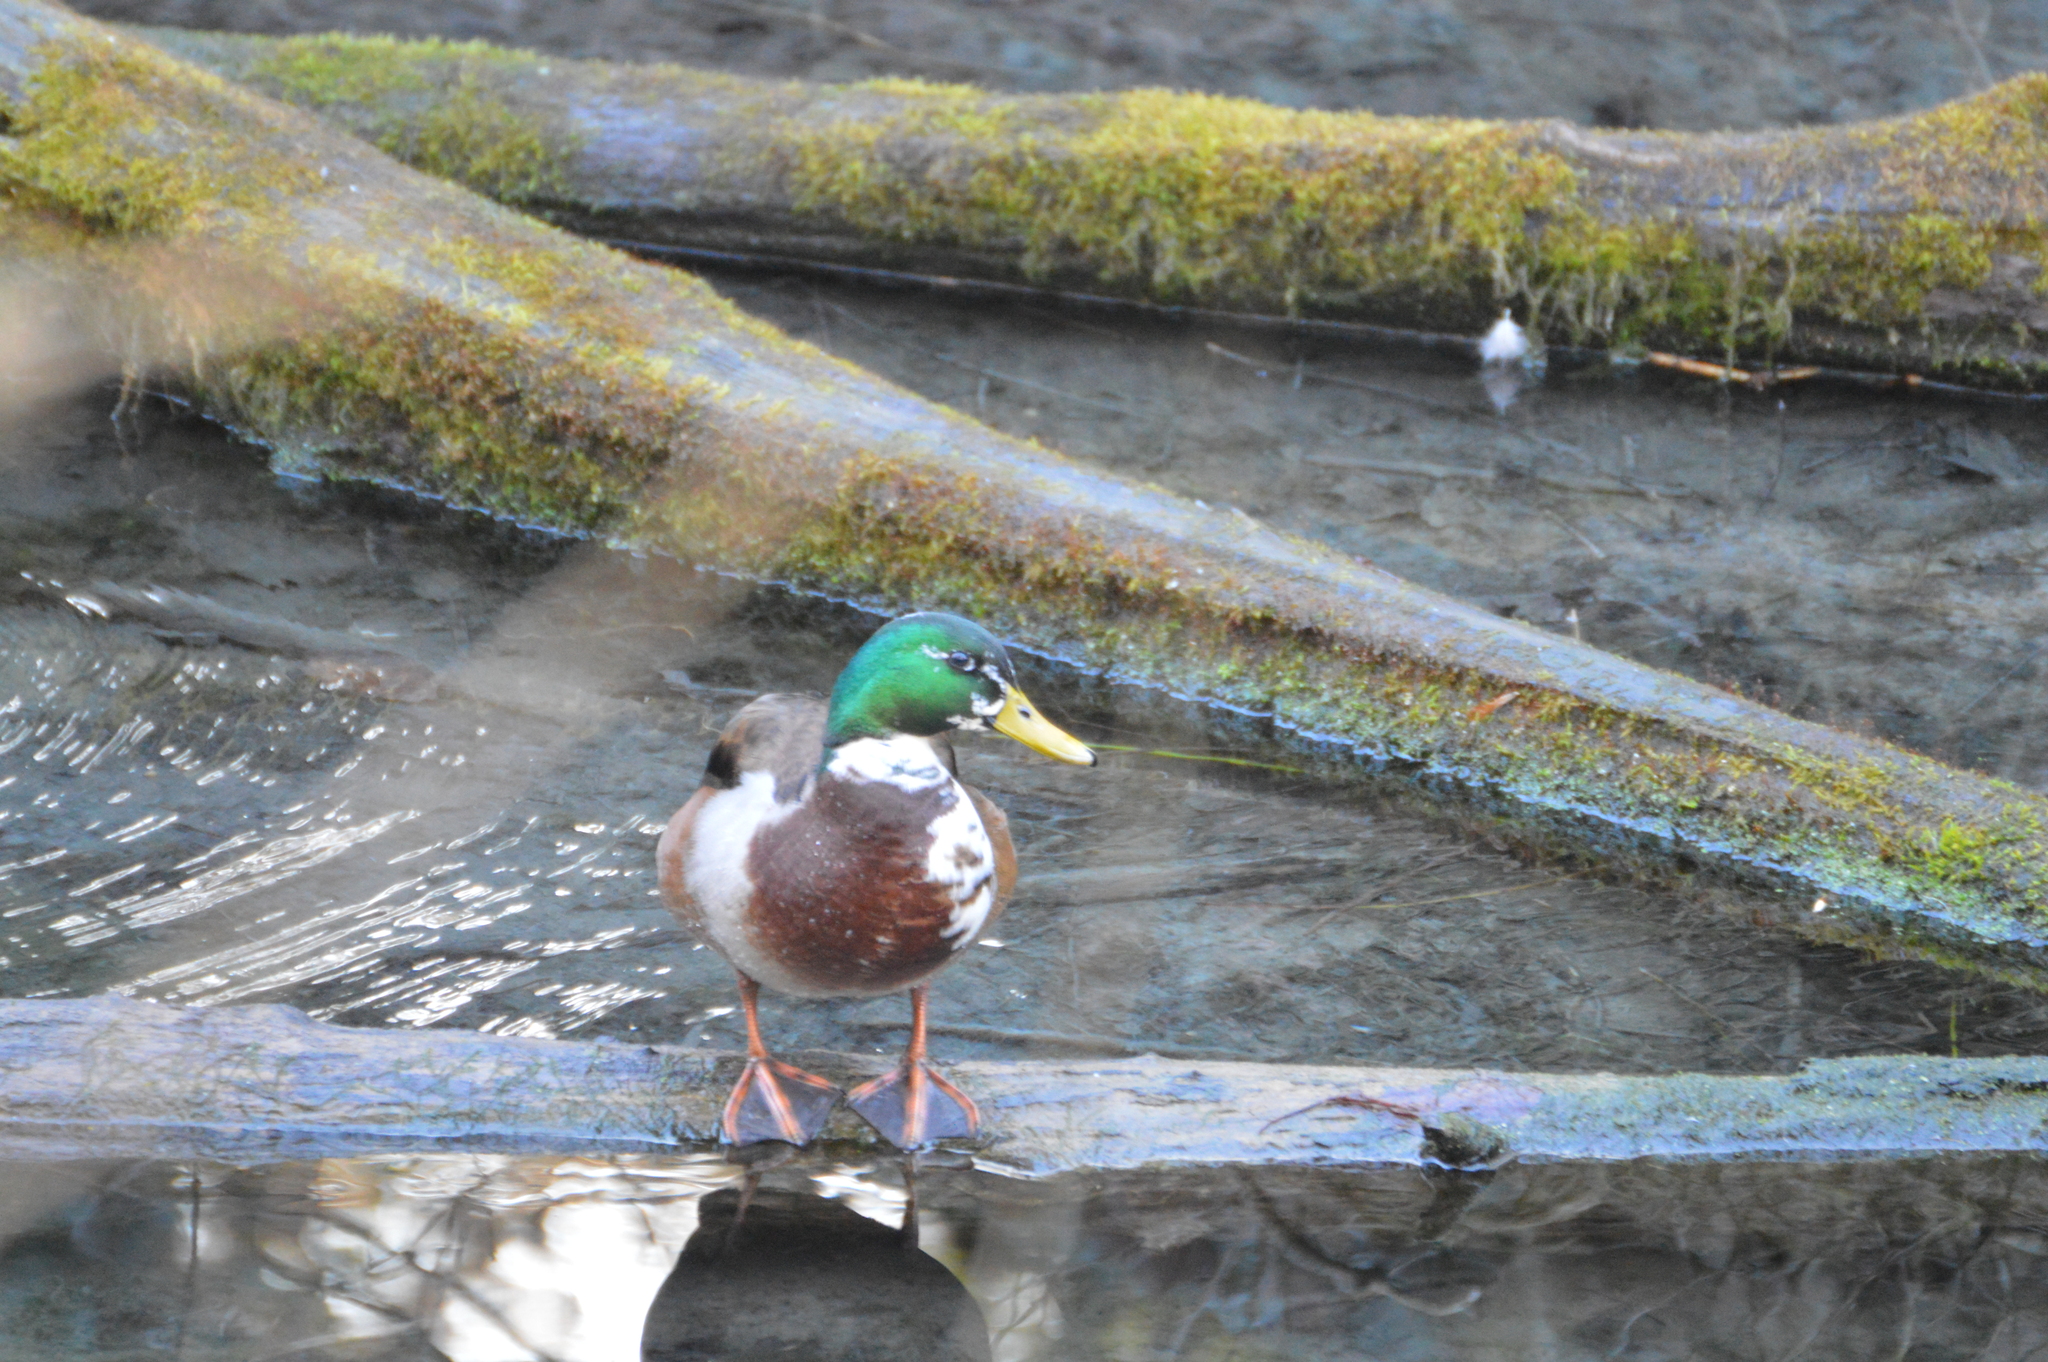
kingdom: Animalia
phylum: Chordata
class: Aves
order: Anseriformes
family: Anatidae
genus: Anas
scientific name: Anas platyrhynchos
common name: Mallard
